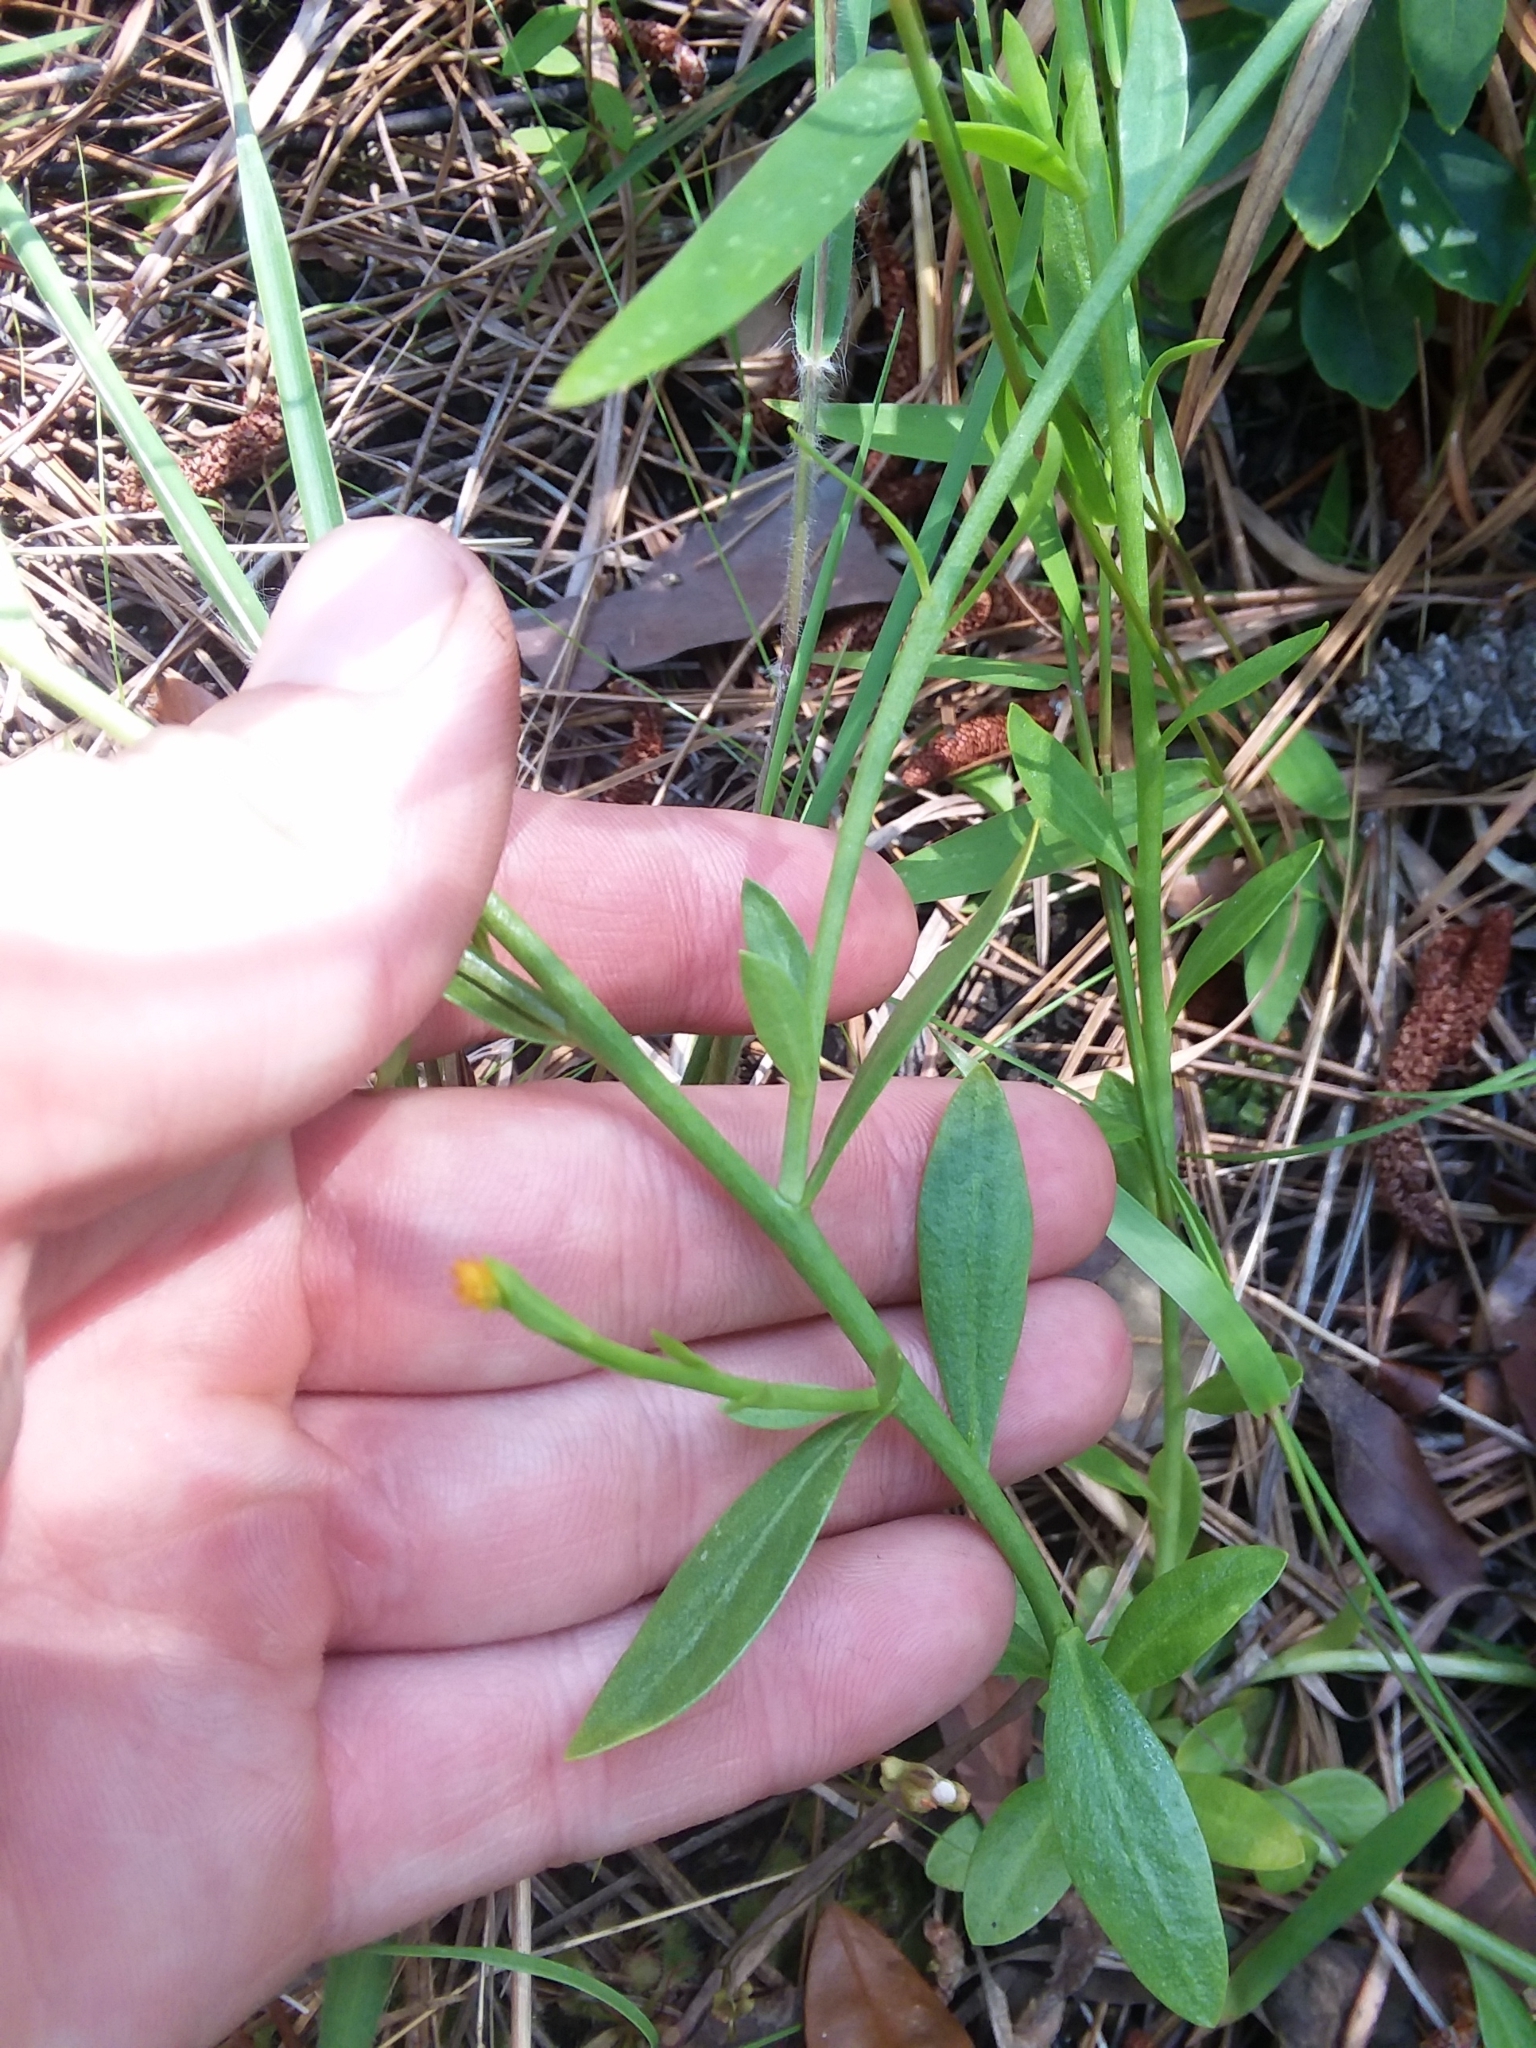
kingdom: Plantae
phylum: Tracheophyta
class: Magnoliopsida
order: Fabales
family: Polygalaceae
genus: Polygala
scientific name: Polygala lutea
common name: Orange milkwort
